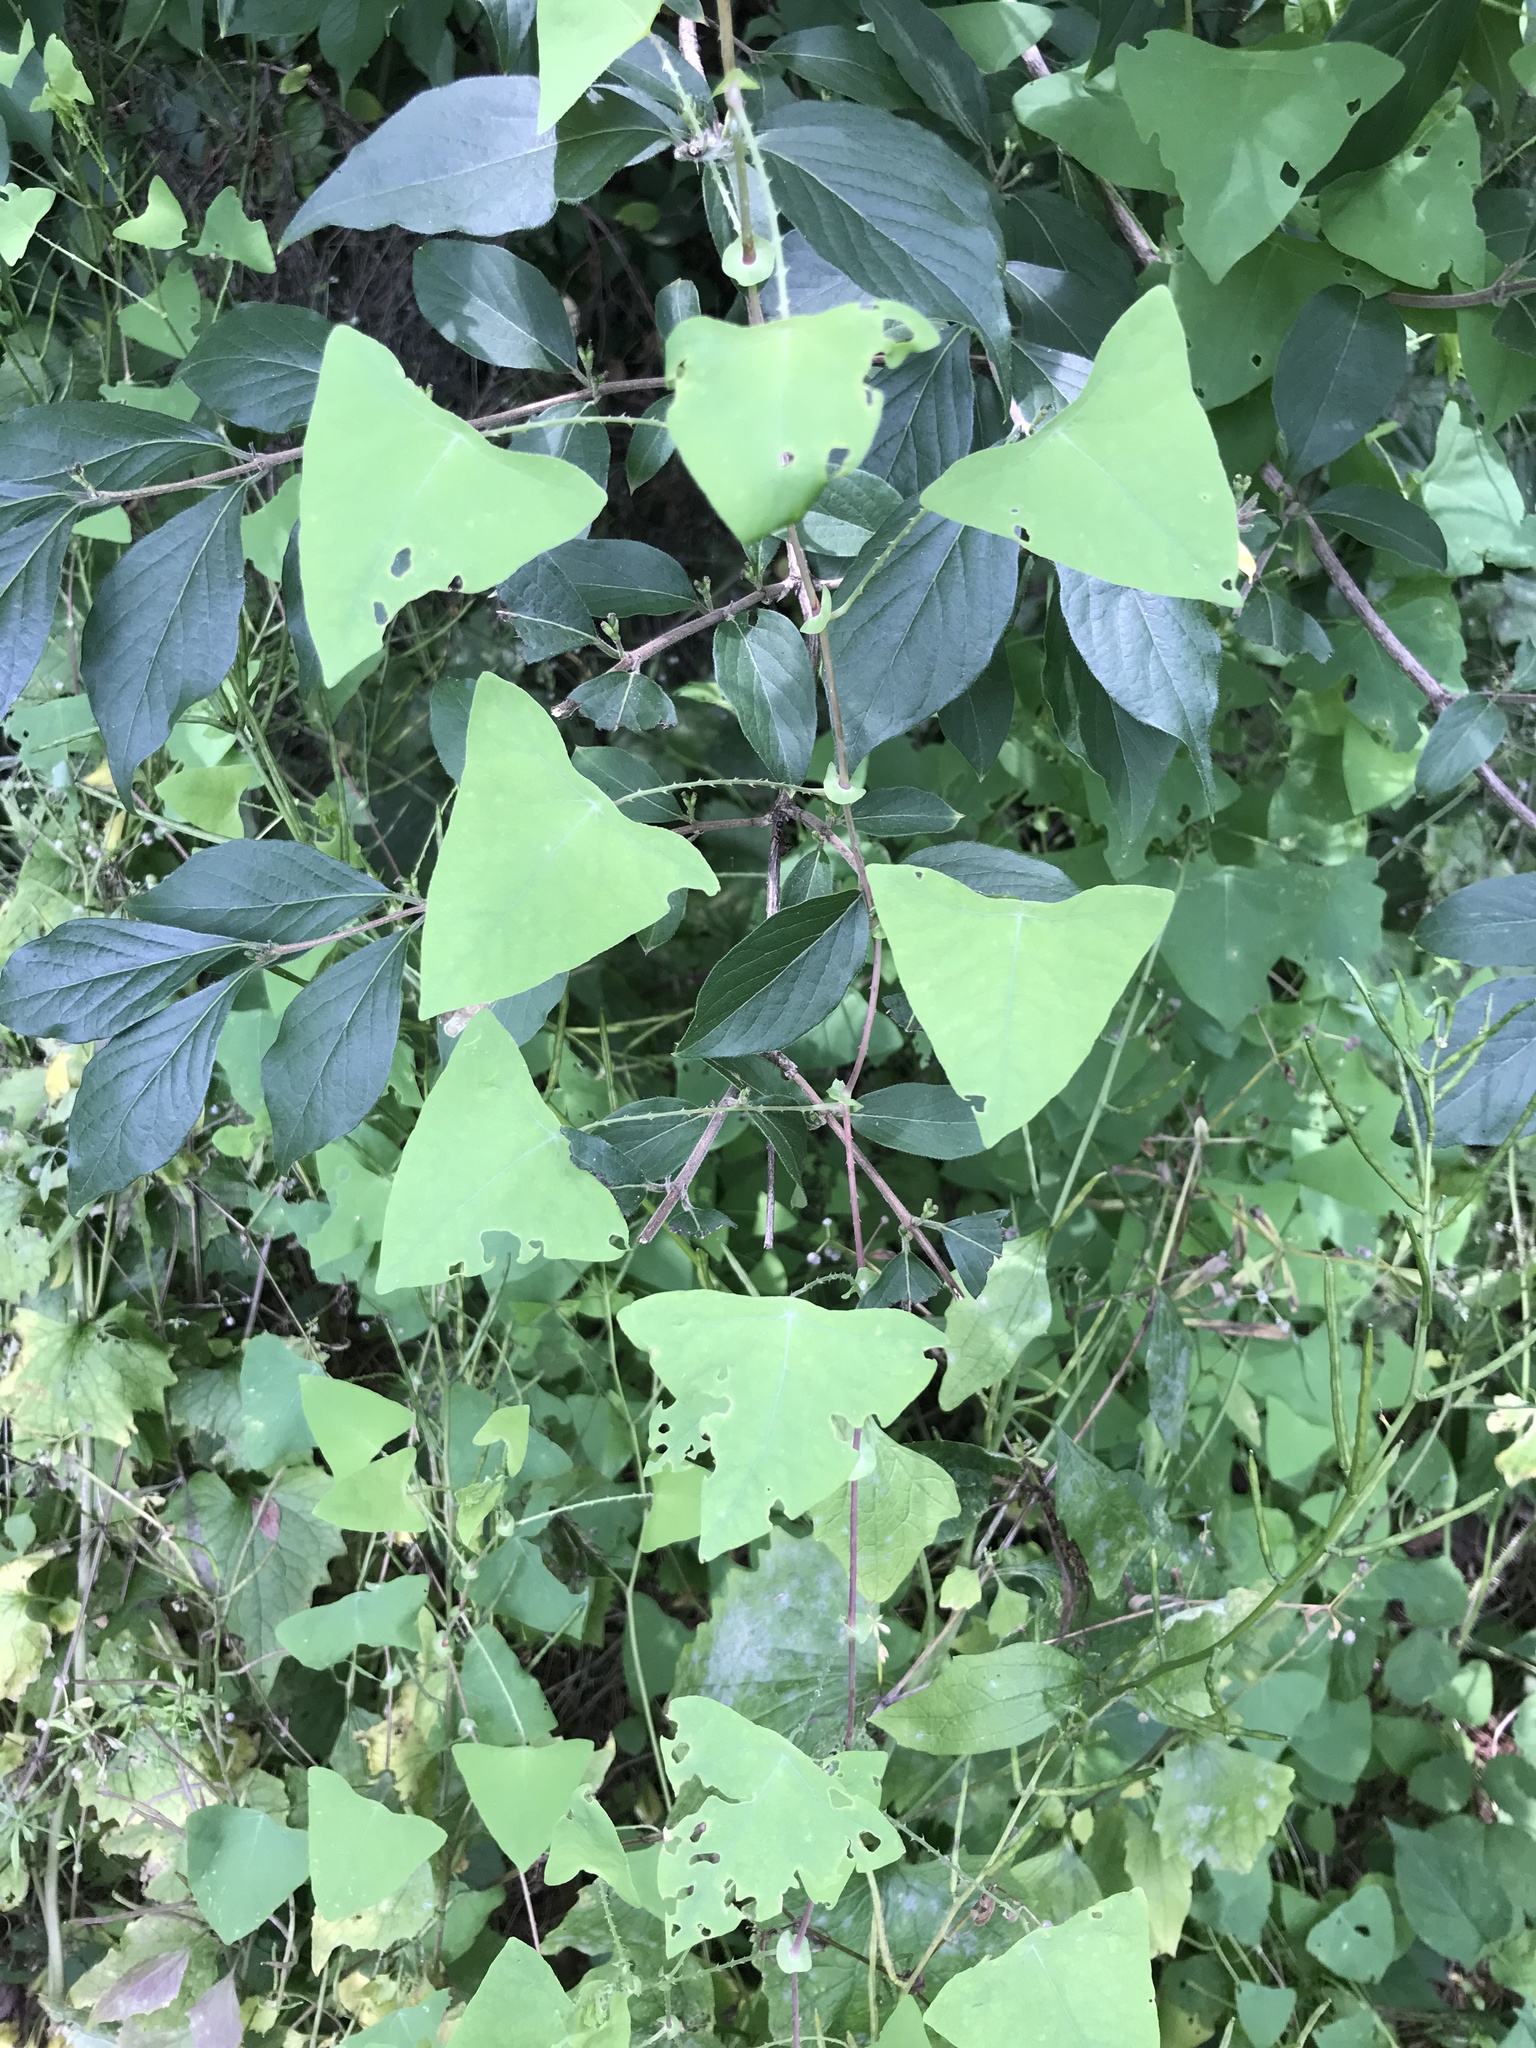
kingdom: Plantae
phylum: Tracheophyta
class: Magnoliopsida
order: Caryophyllales
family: Polygonaceae
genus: Persicaria
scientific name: Persicaria perfoliata
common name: Asiatic tearthumb
